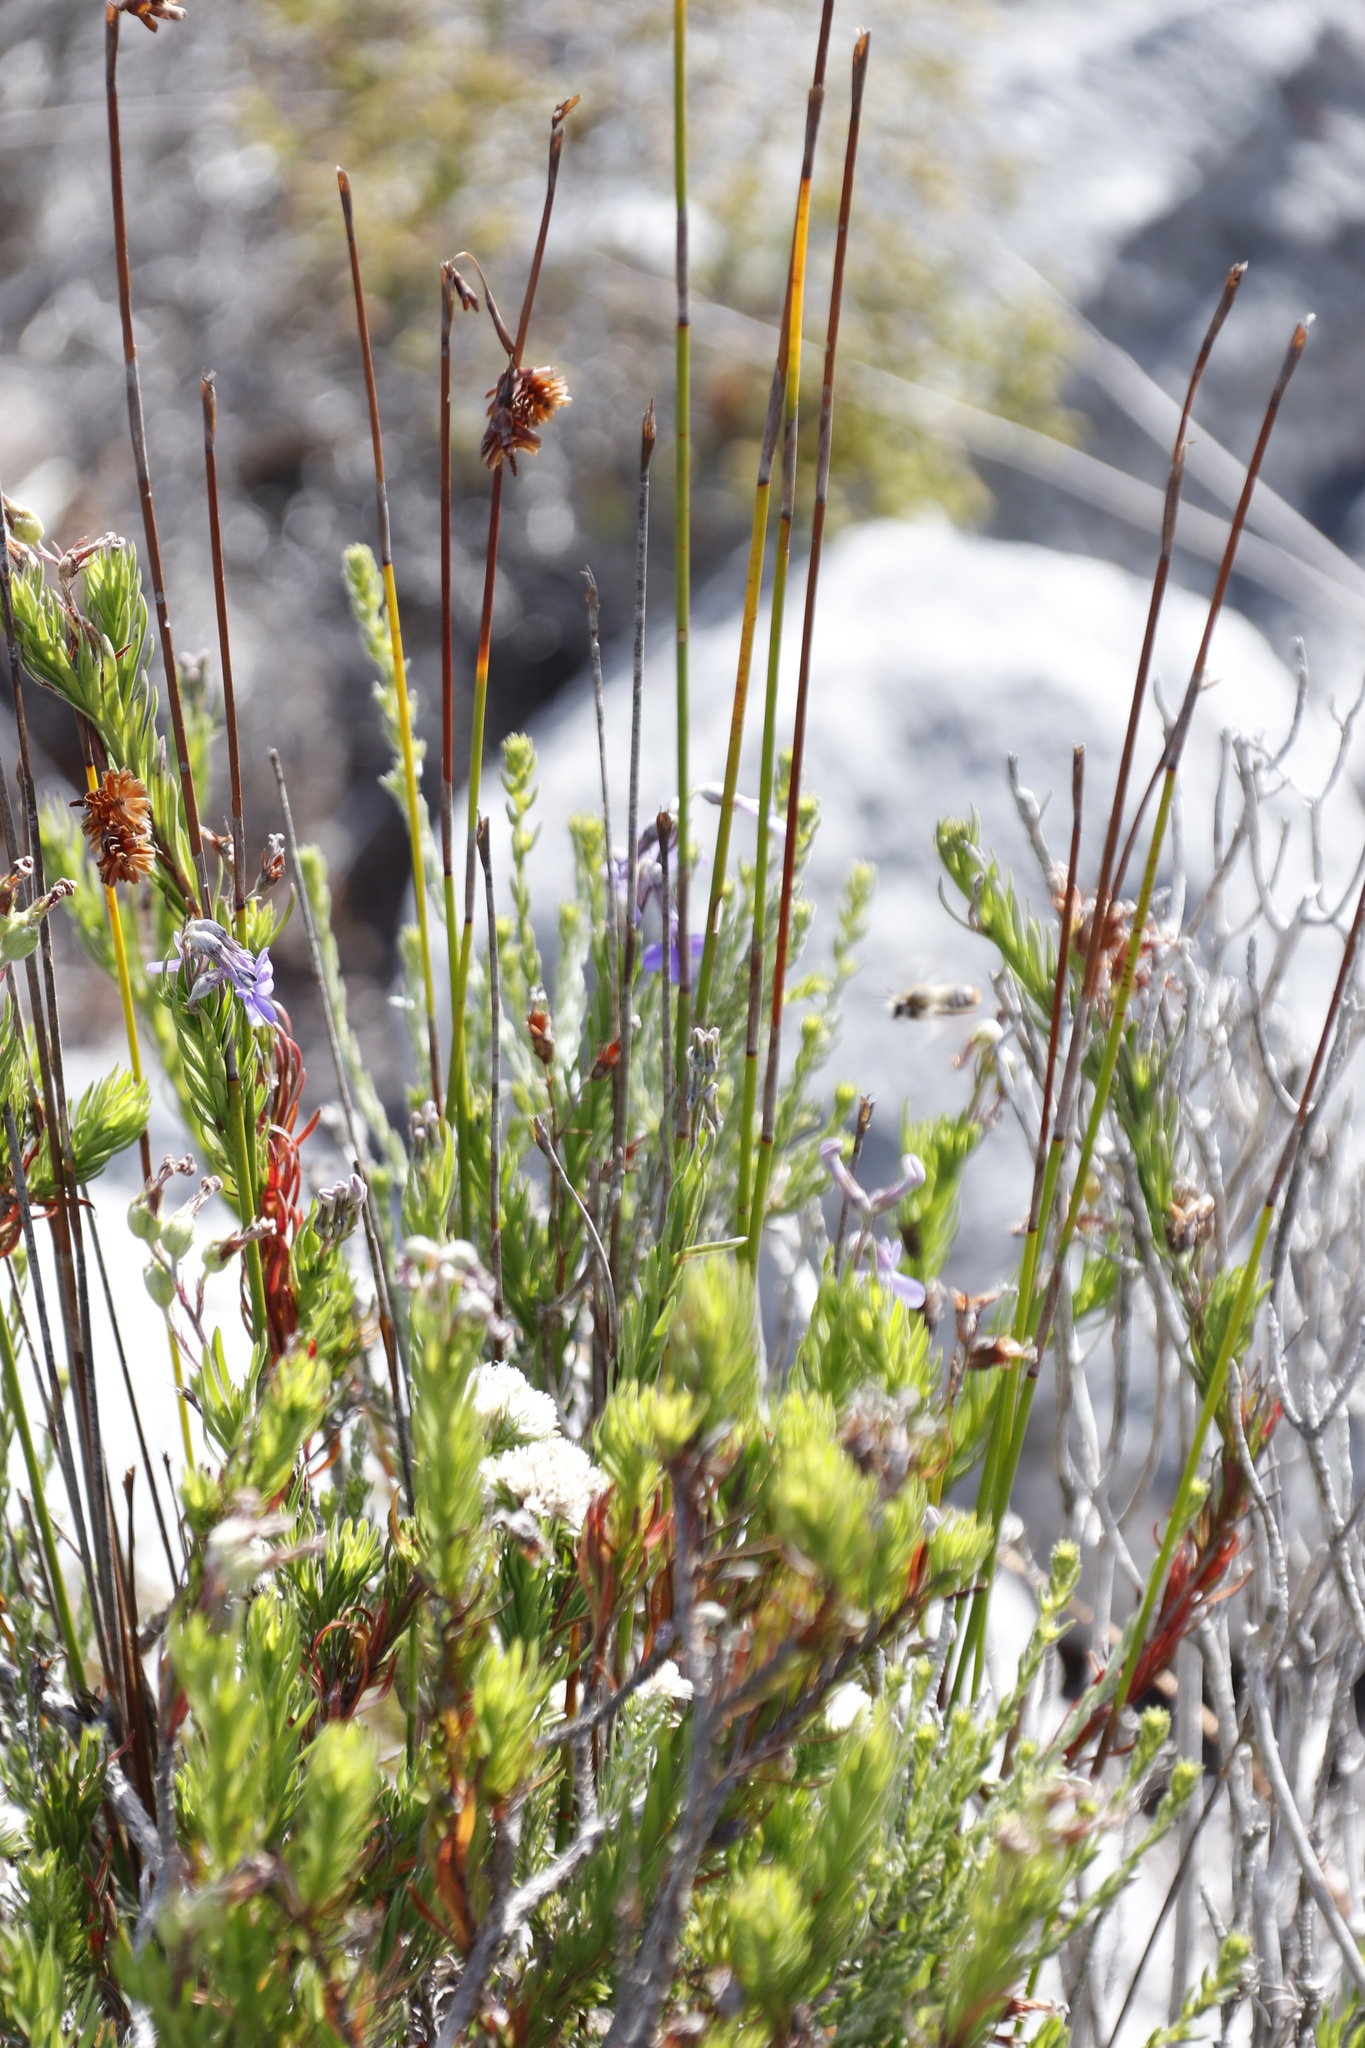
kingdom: Plantae
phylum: Tracheophyta
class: Magnoliopsida
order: Asterales
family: Campanulaceae
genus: Lobelia
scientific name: Lobelia pinifolia
